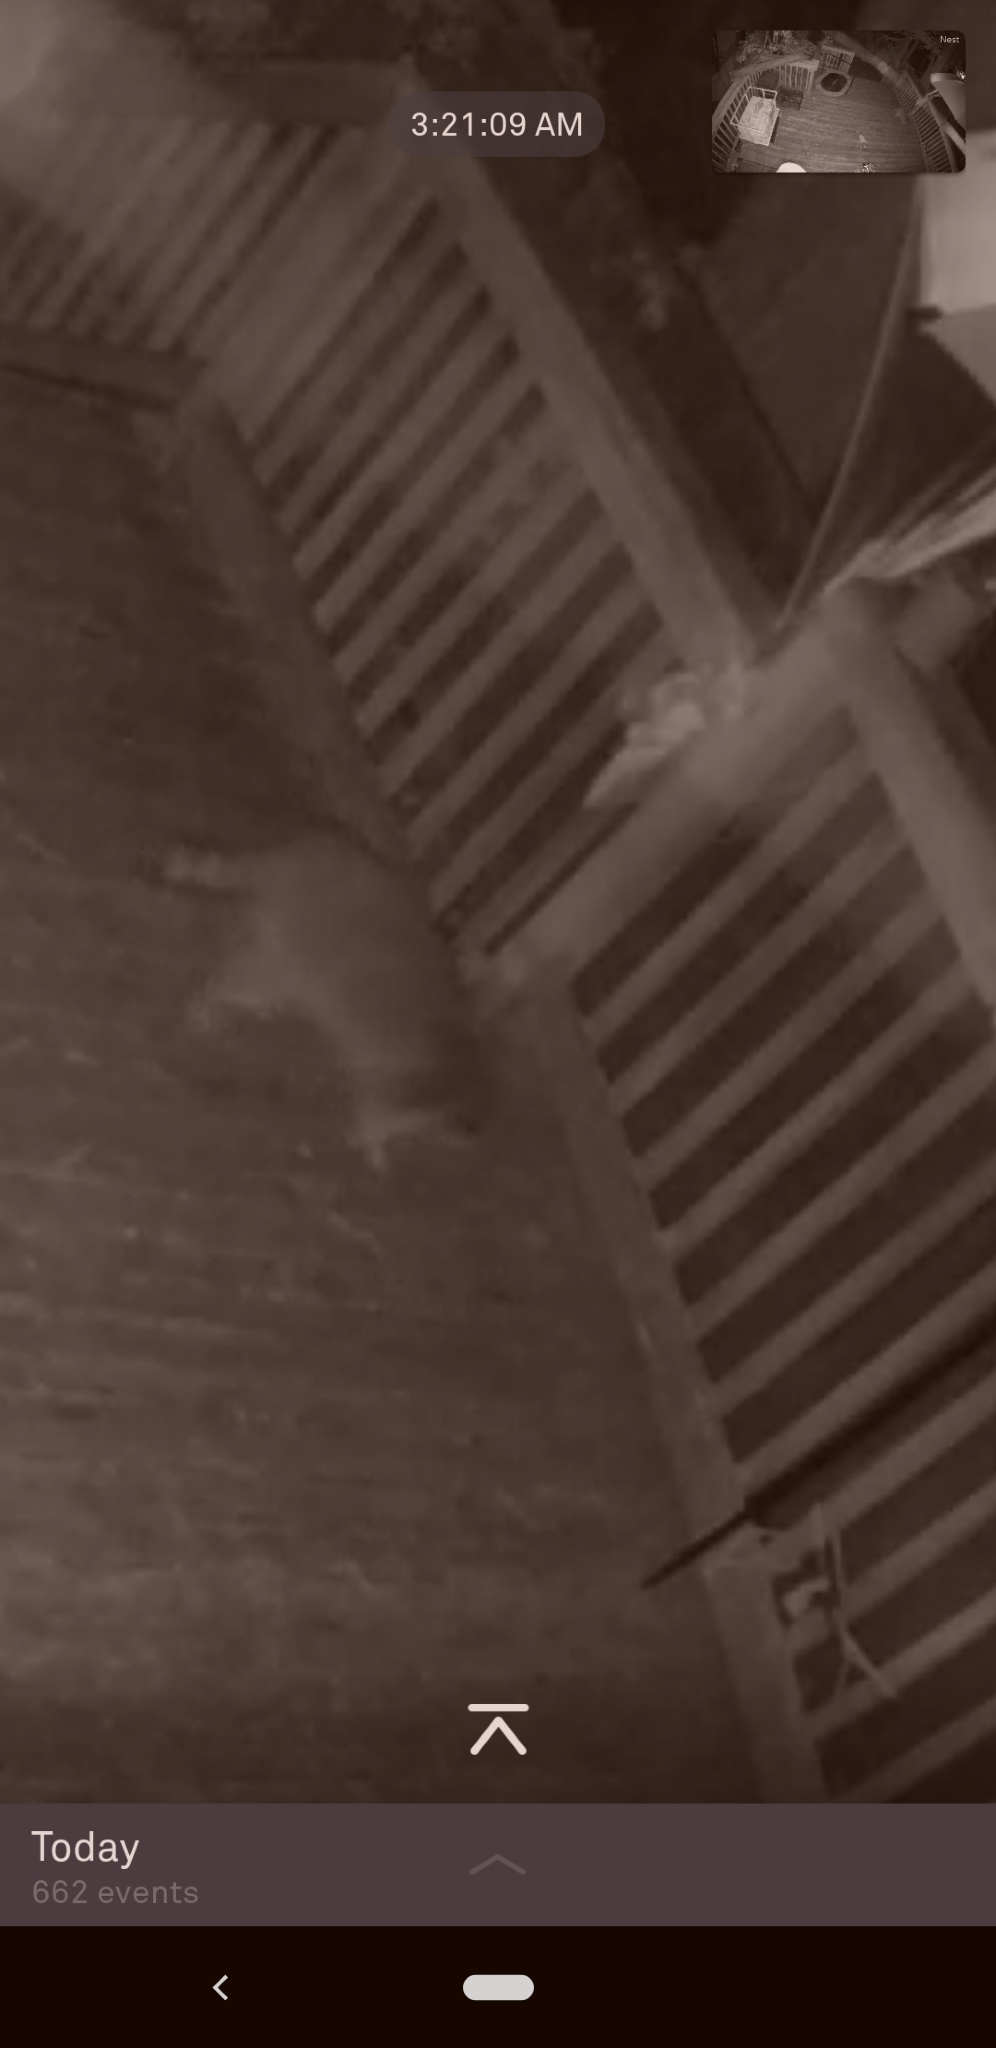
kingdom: Animalia
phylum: Chordata
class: Mammalia
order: Carnivora
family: Procyonidae
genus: Procyon
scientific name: Procyon lotor
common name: Raccoon
